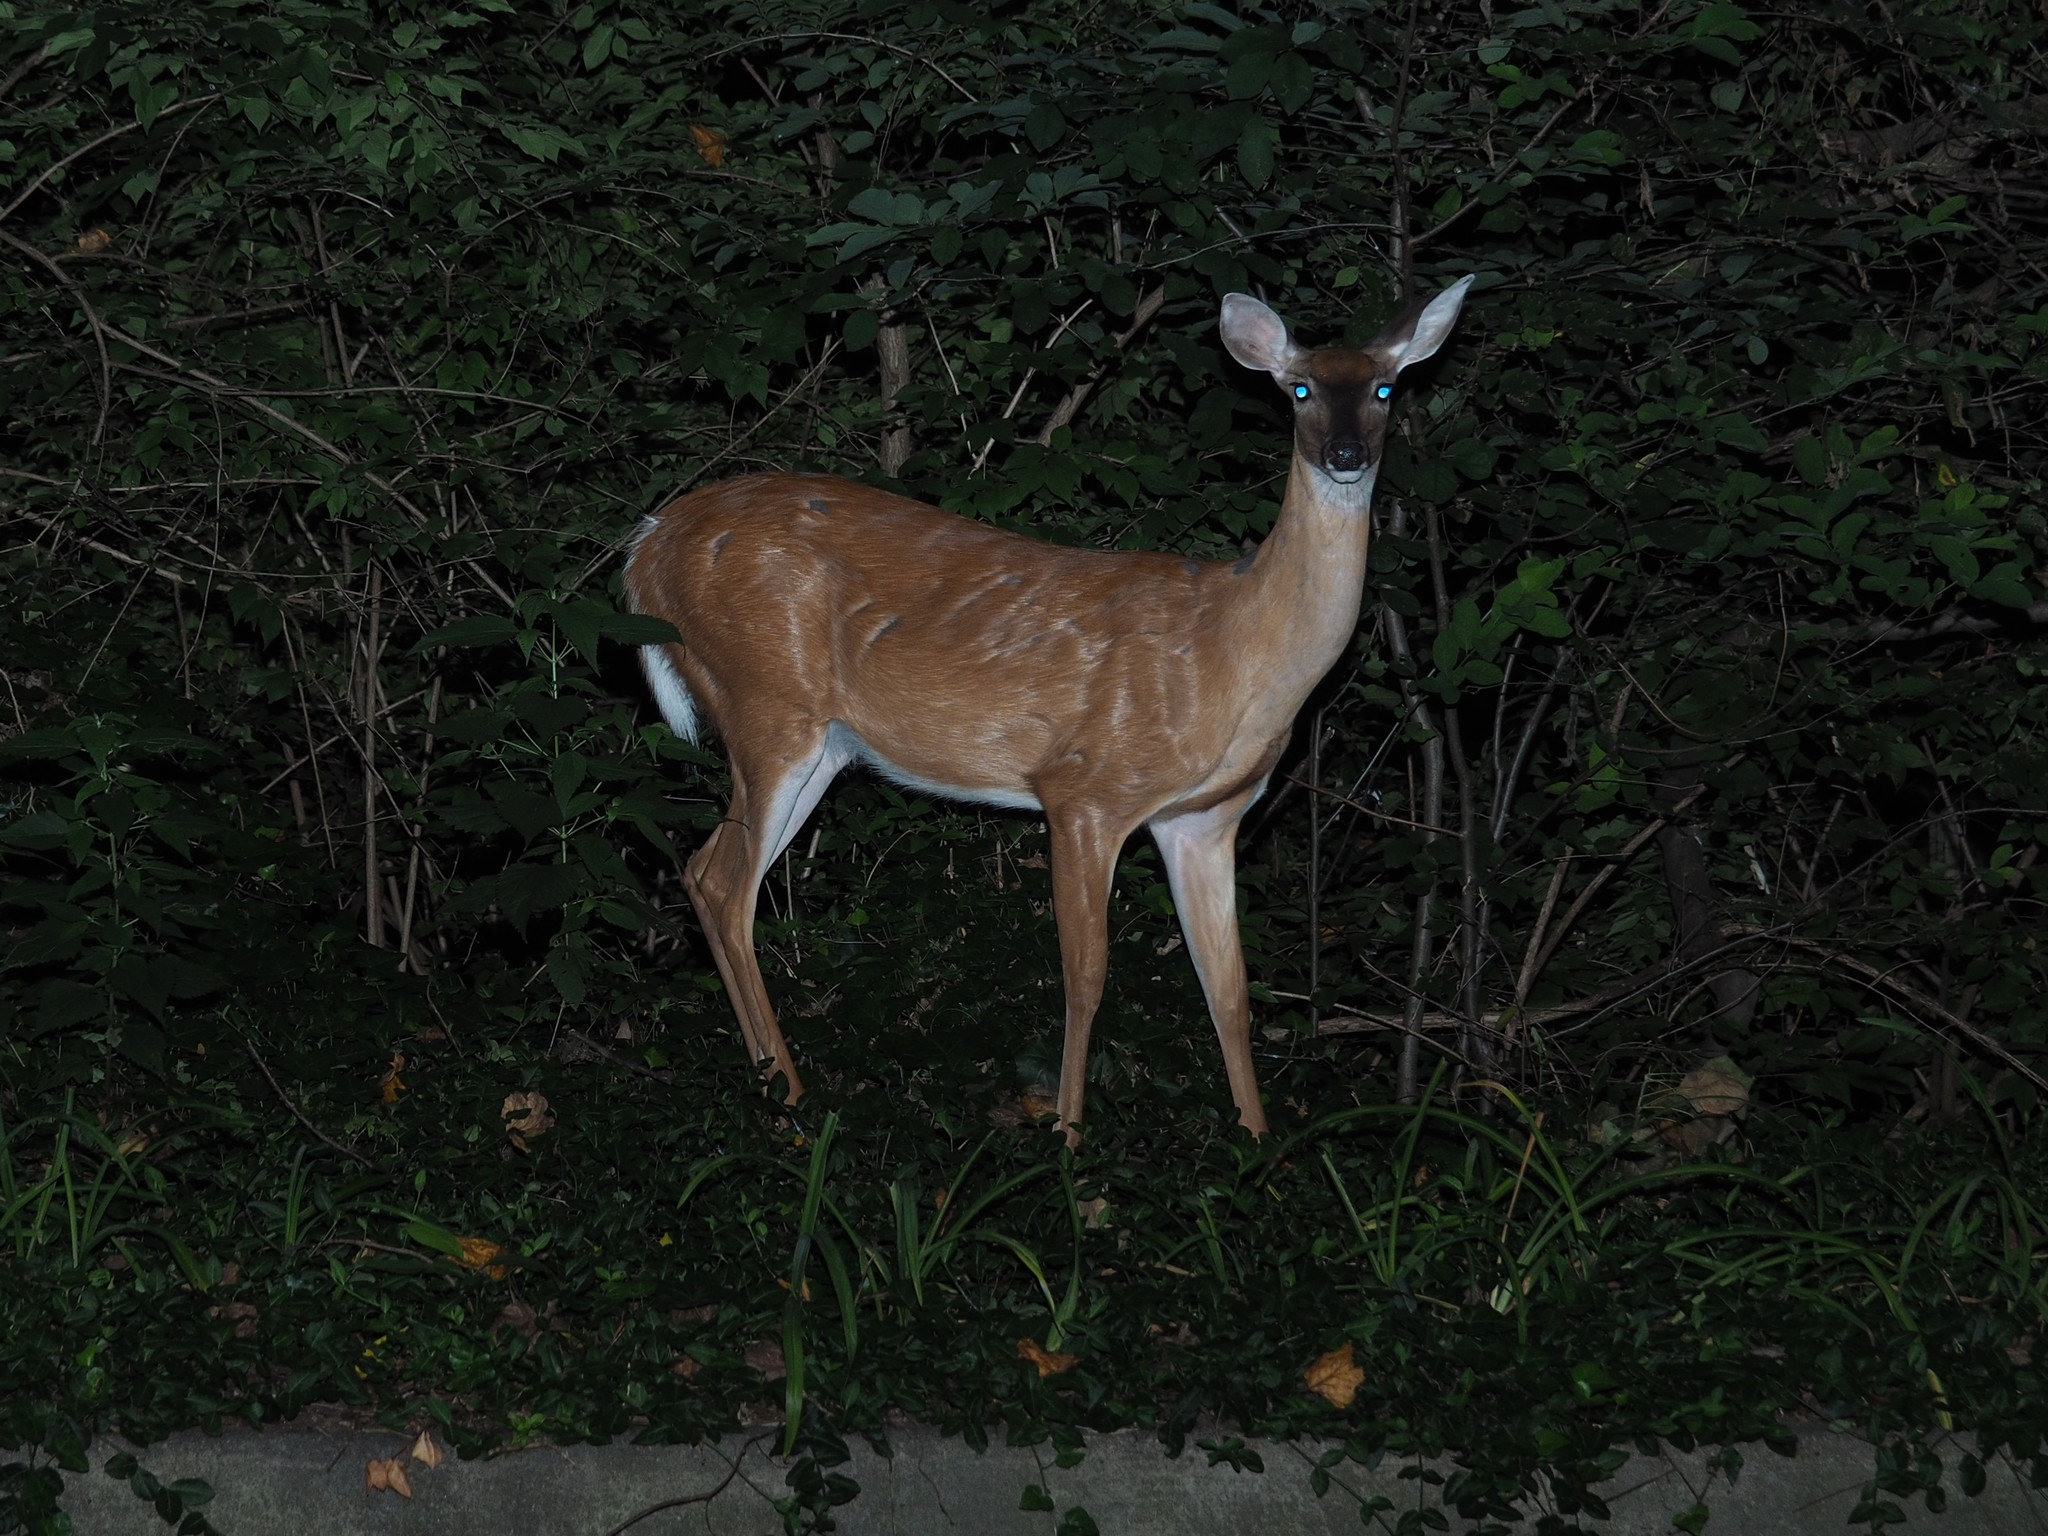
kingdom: Animalia
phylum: Chordata
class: Mammalia
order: Artiodactyla
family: Cervidae
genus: Odocoileus
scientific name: Odocoileus virginianus
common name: White-tailed deer
